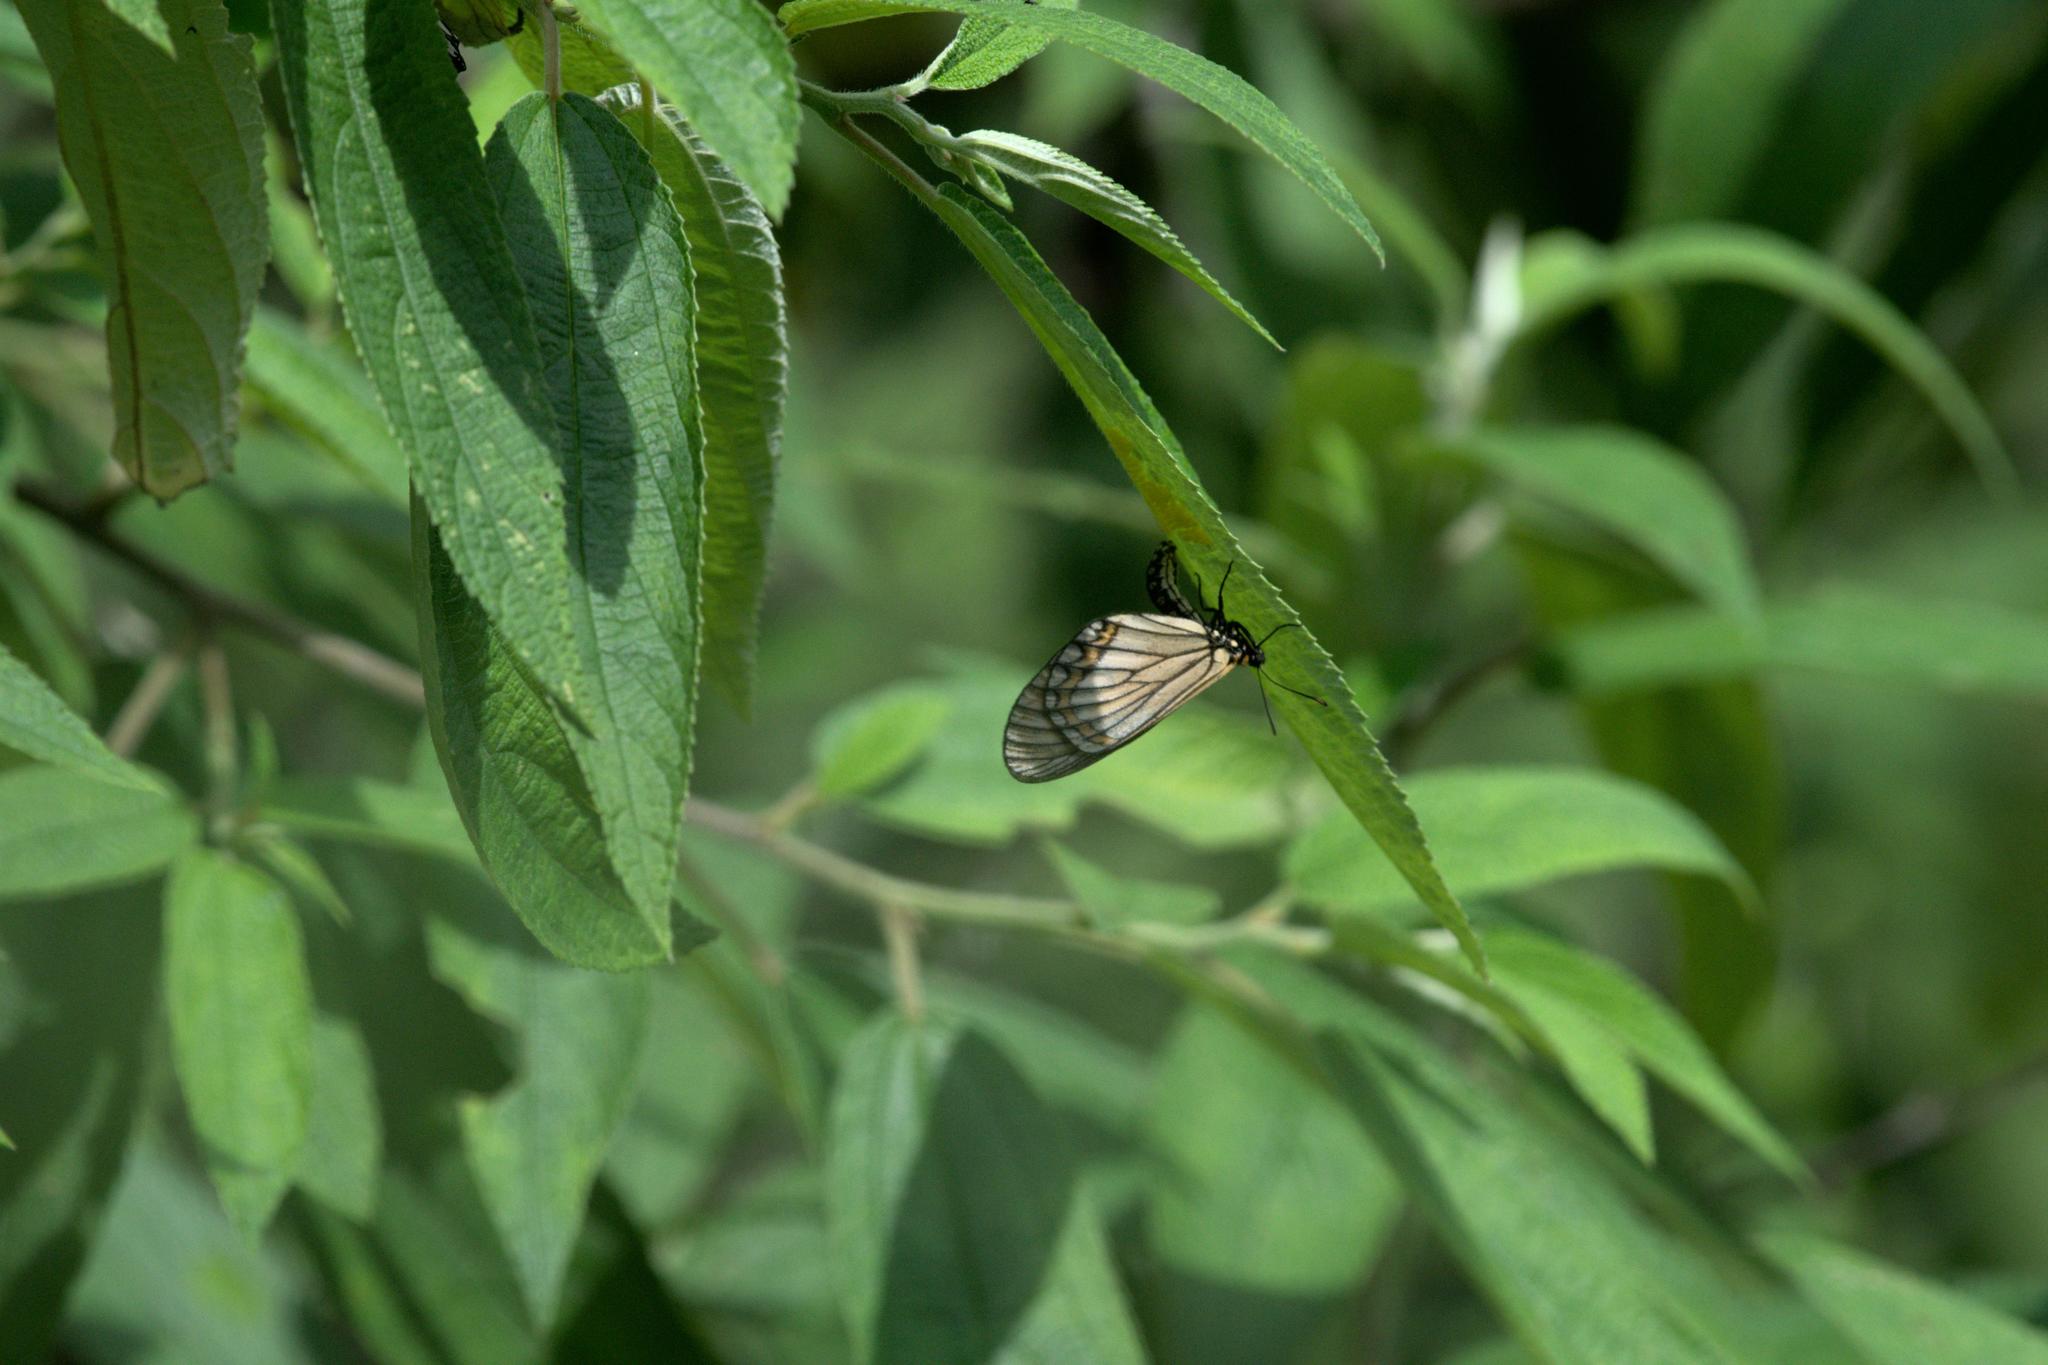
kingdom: Animalia
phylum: Arthropoda
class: Insecta
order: Lepidoptera
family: Nymphalidae
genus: Acraea
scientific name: Acraea Telchinia issoria
